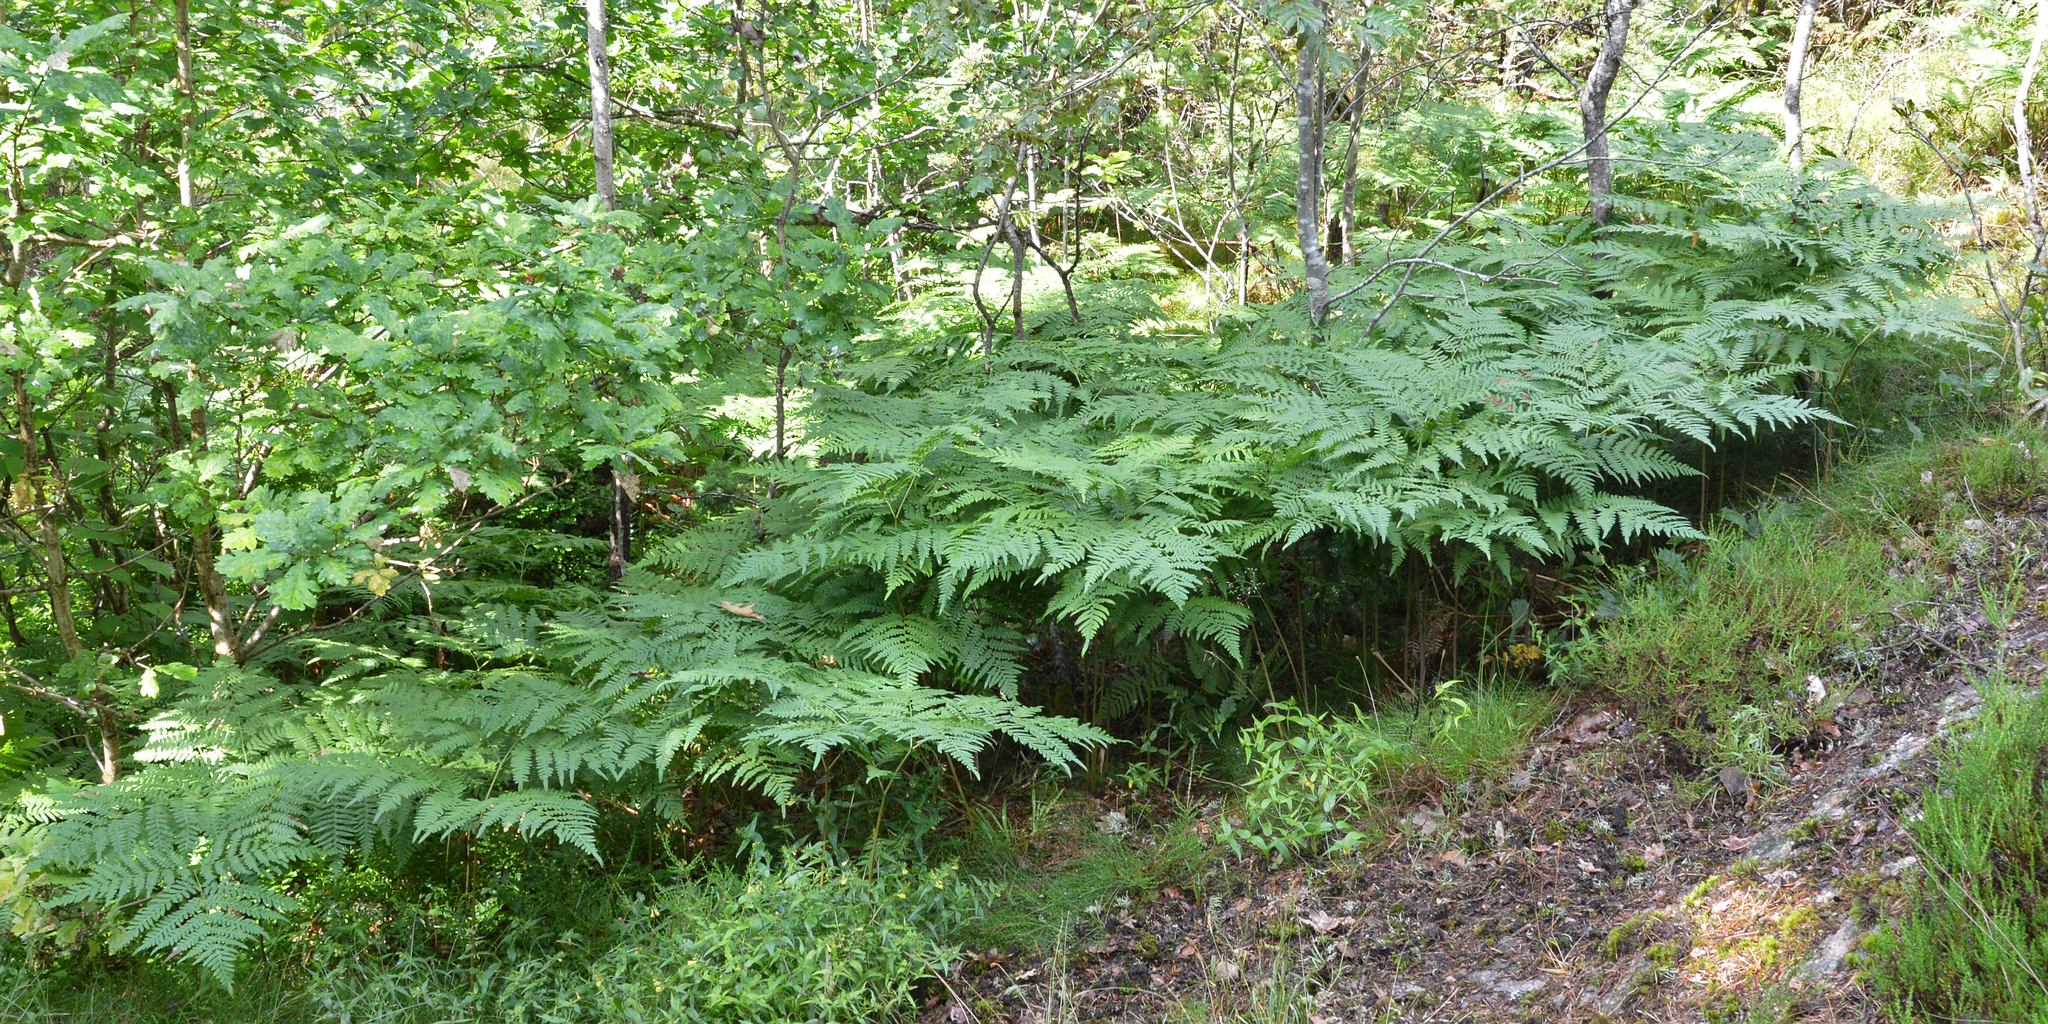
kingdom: Plantae
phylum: Tracheophyta
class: Polypodiopsida
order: Polypodiales
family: Dennstaedtiaceae
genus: Pteridium
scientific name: Pteridium aquilinum
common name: Bracken
